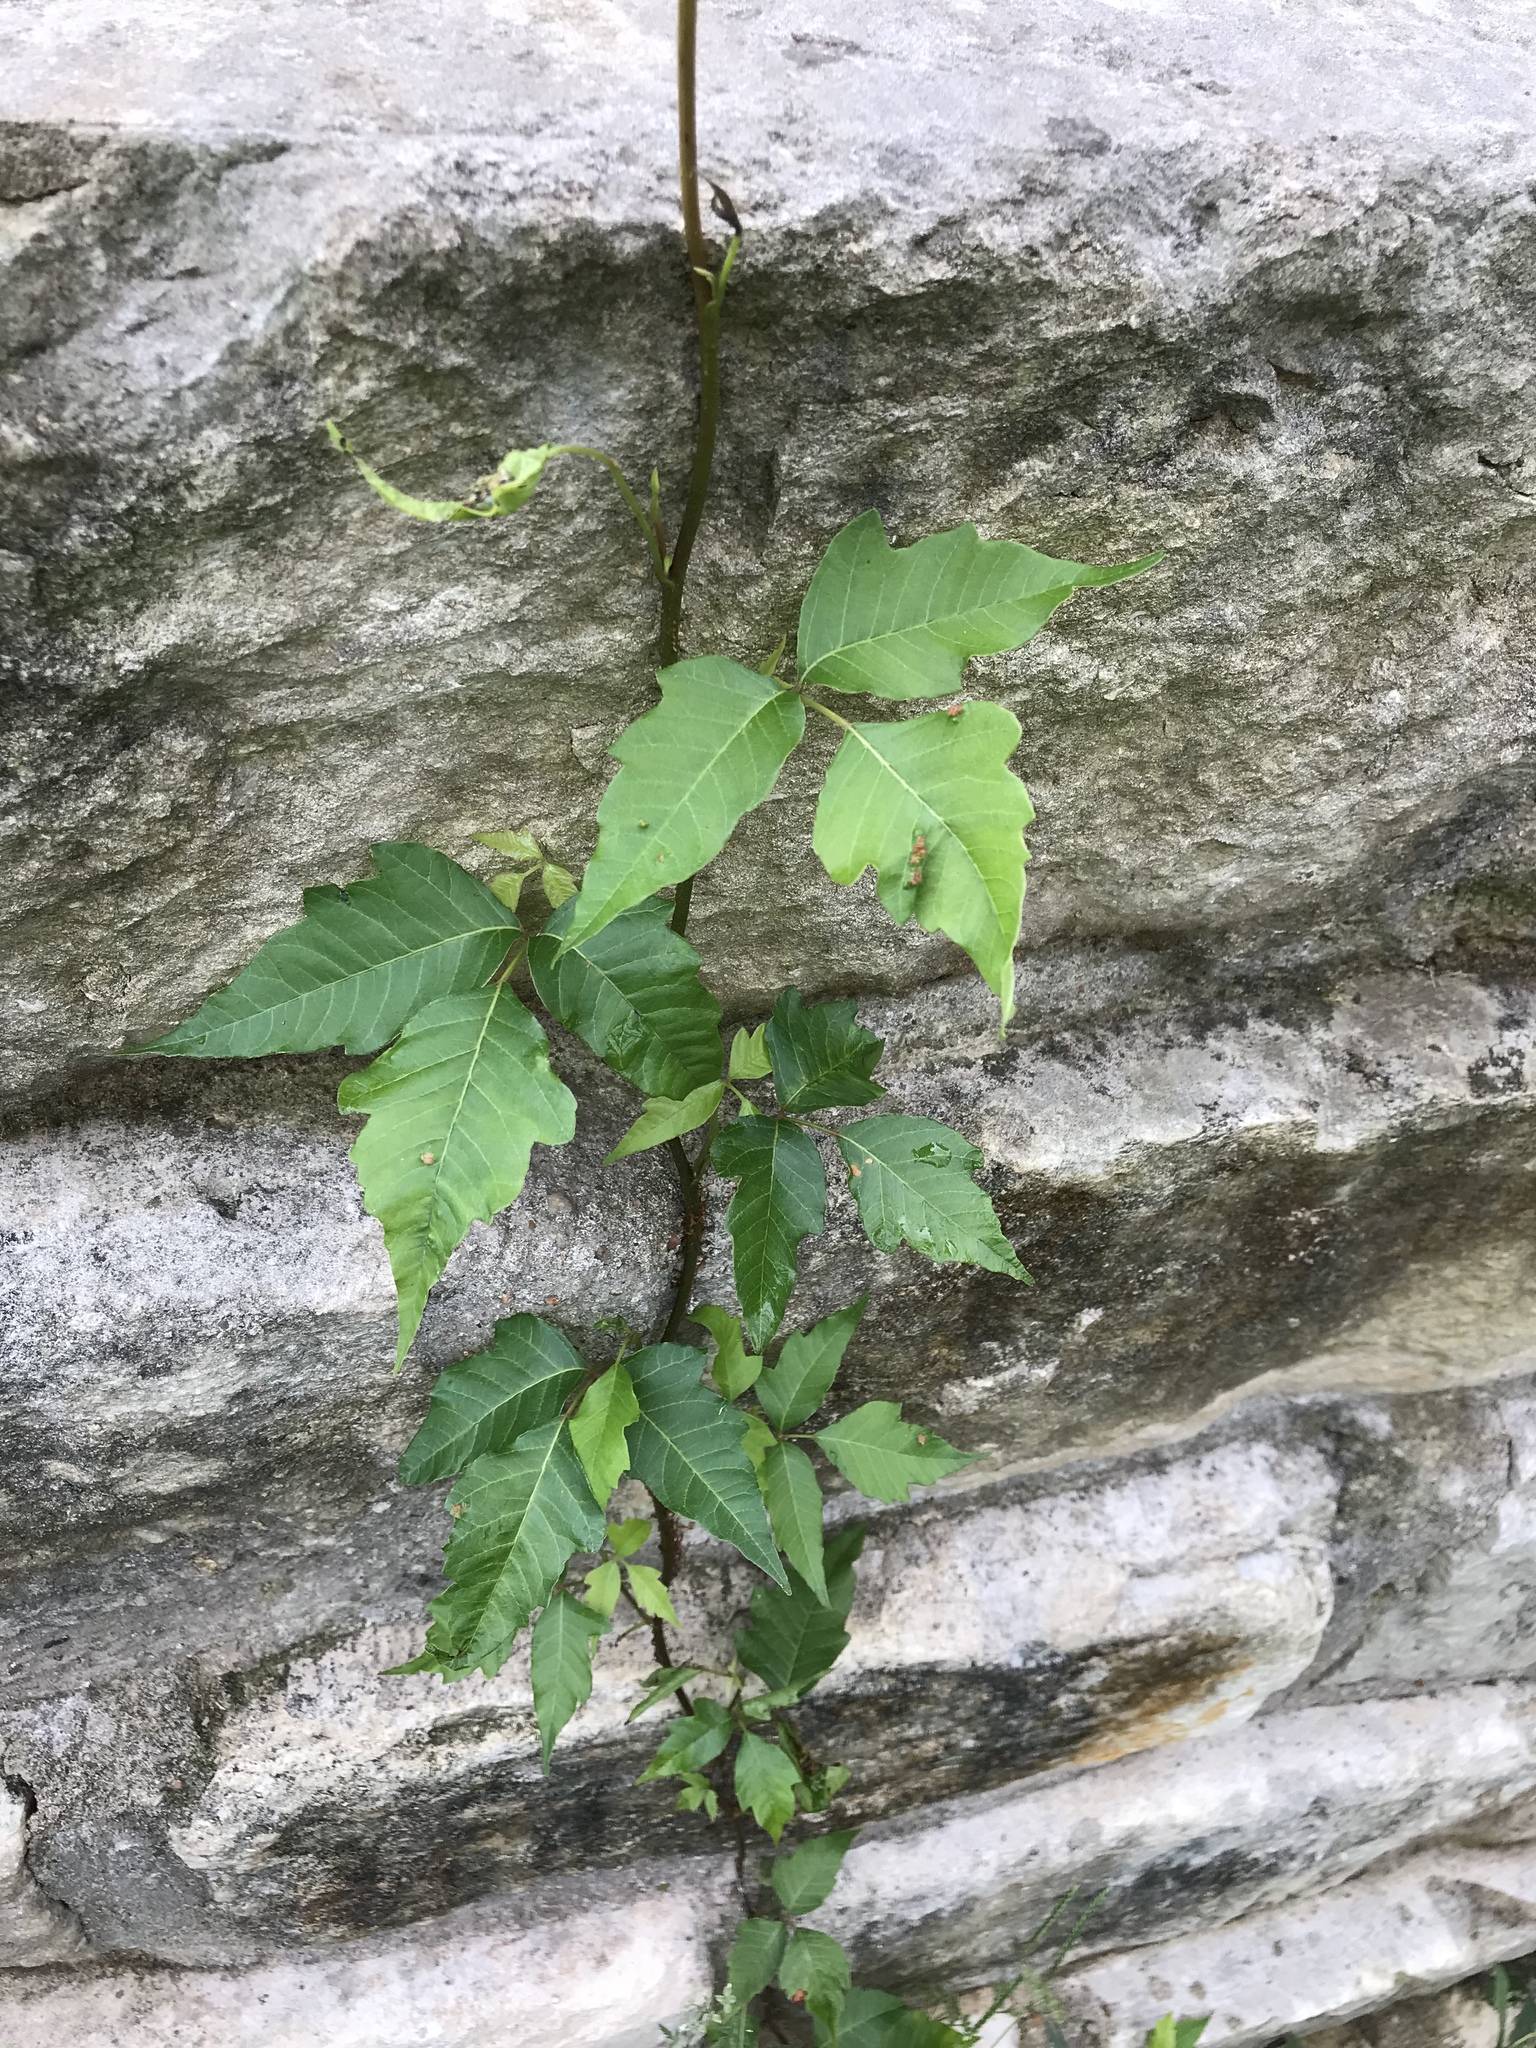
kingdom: Plantae
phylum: Tracheophyta
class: Magnoliopsida
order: Sapindales
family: Anacardiaceae
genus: Toxicodendron
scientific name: Toxicodendron radicans
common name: Poison ivy
